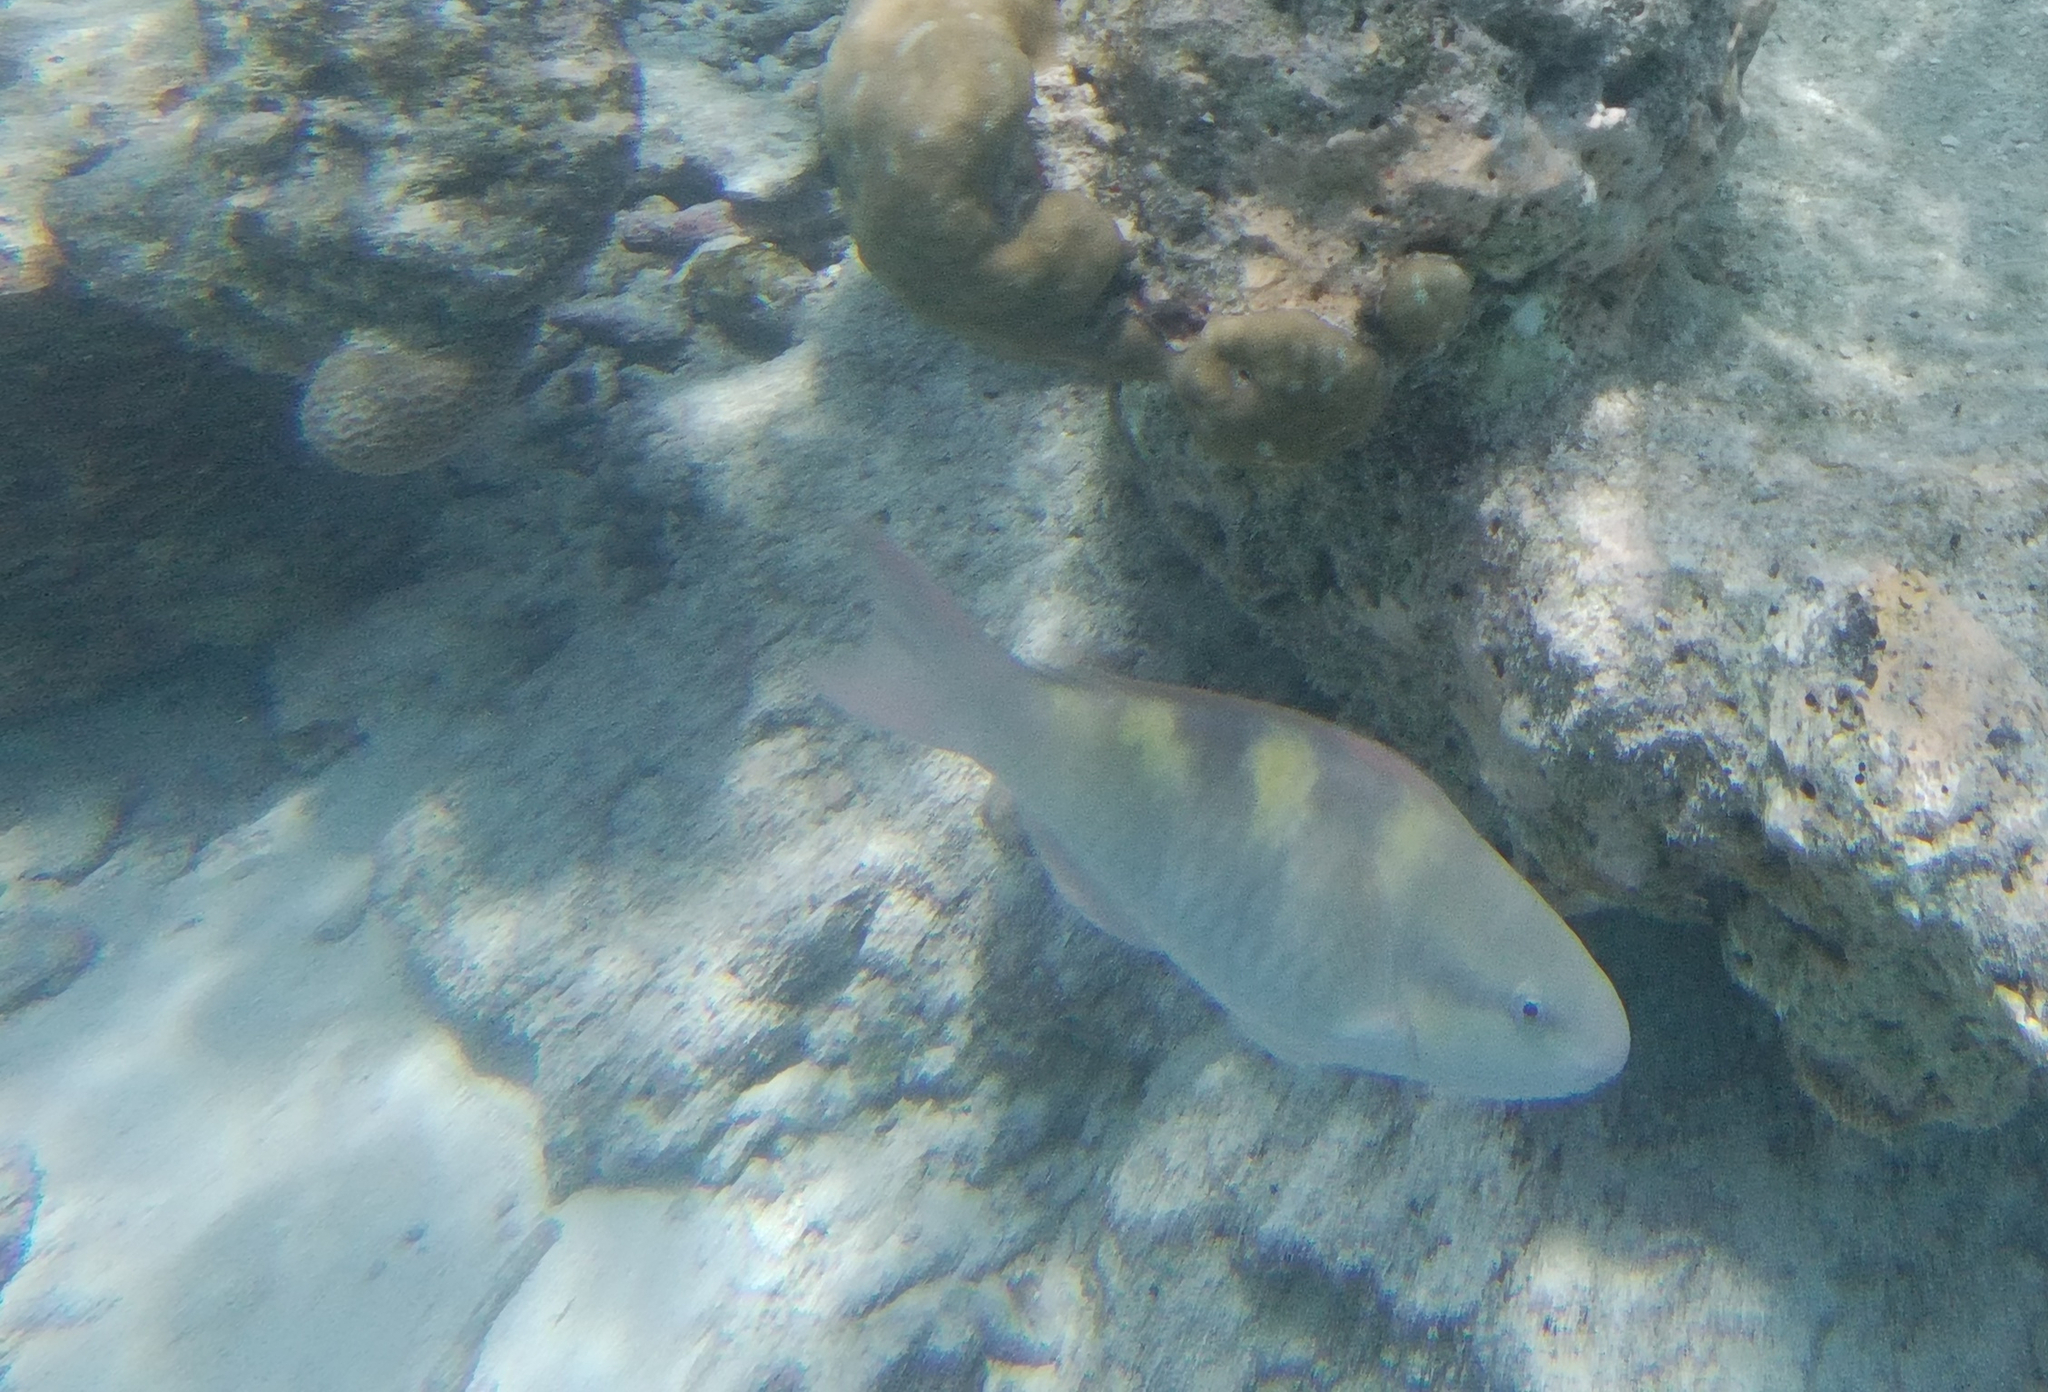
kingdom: Animalia
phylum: Chordata
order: Perciformes
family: Scaridae
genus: Scarus
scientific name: Scarus scaber
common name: Dusky-capped parrotfish
